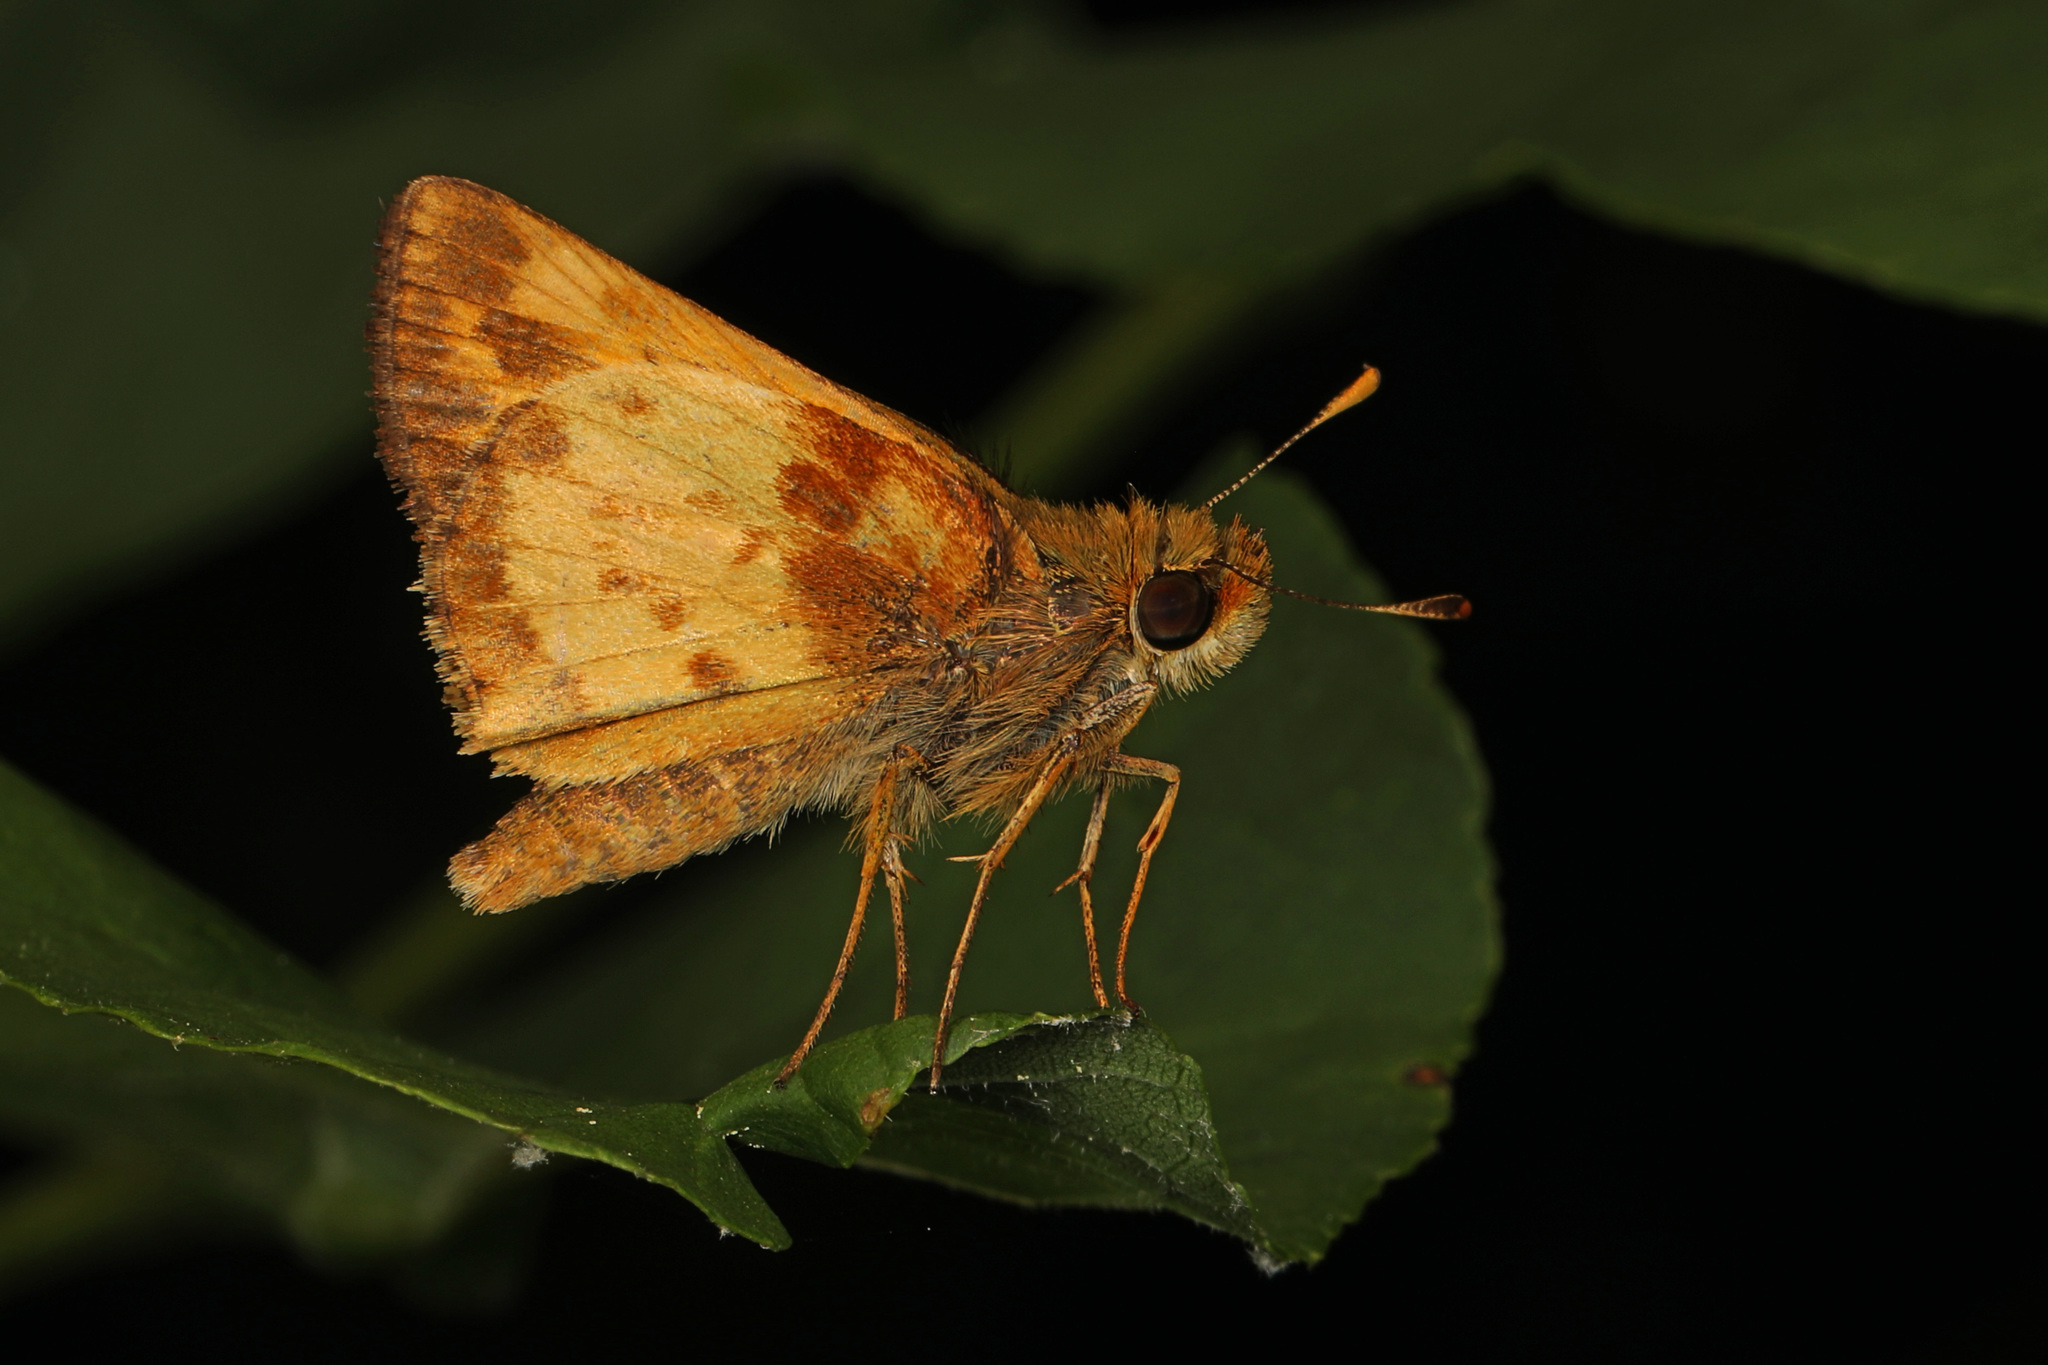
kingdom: Animalia
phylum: Arthropoda
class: Insecta
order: Lepidoptera
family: Hesperiidae
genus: Lon
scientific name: Lon zabulon
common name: Zabulon skipper
